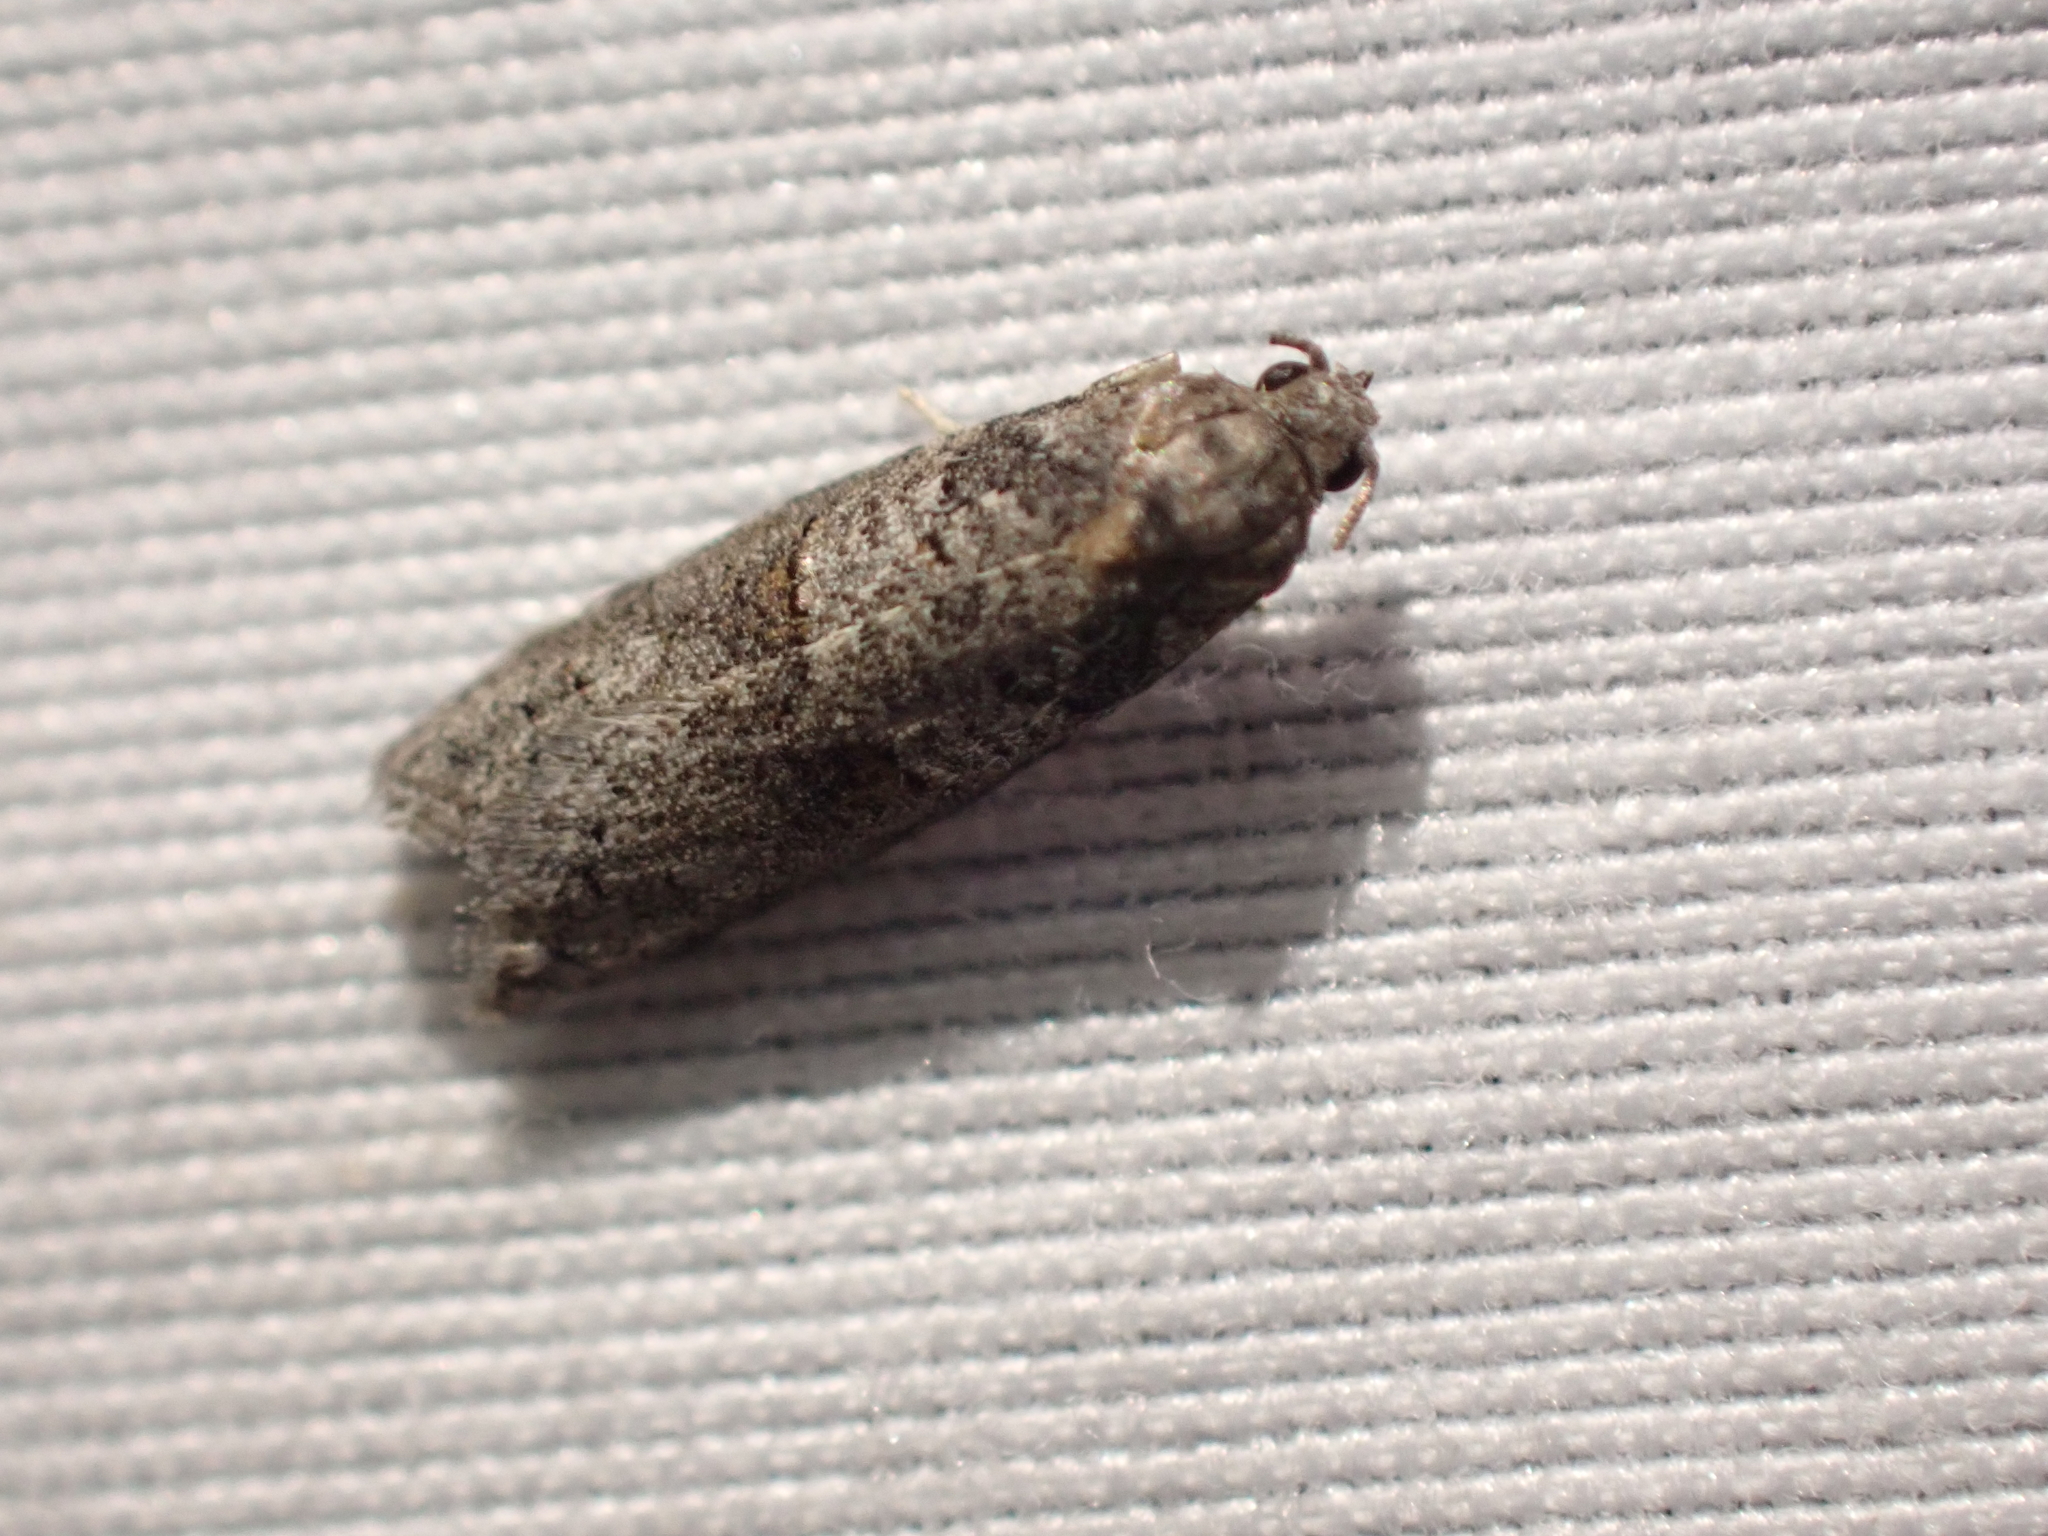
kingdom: Animalia
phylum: Arthropoda
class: Insecta
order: Lepidoptera
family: Tortricidae
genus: Decodes
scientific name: Decodes fragariana
